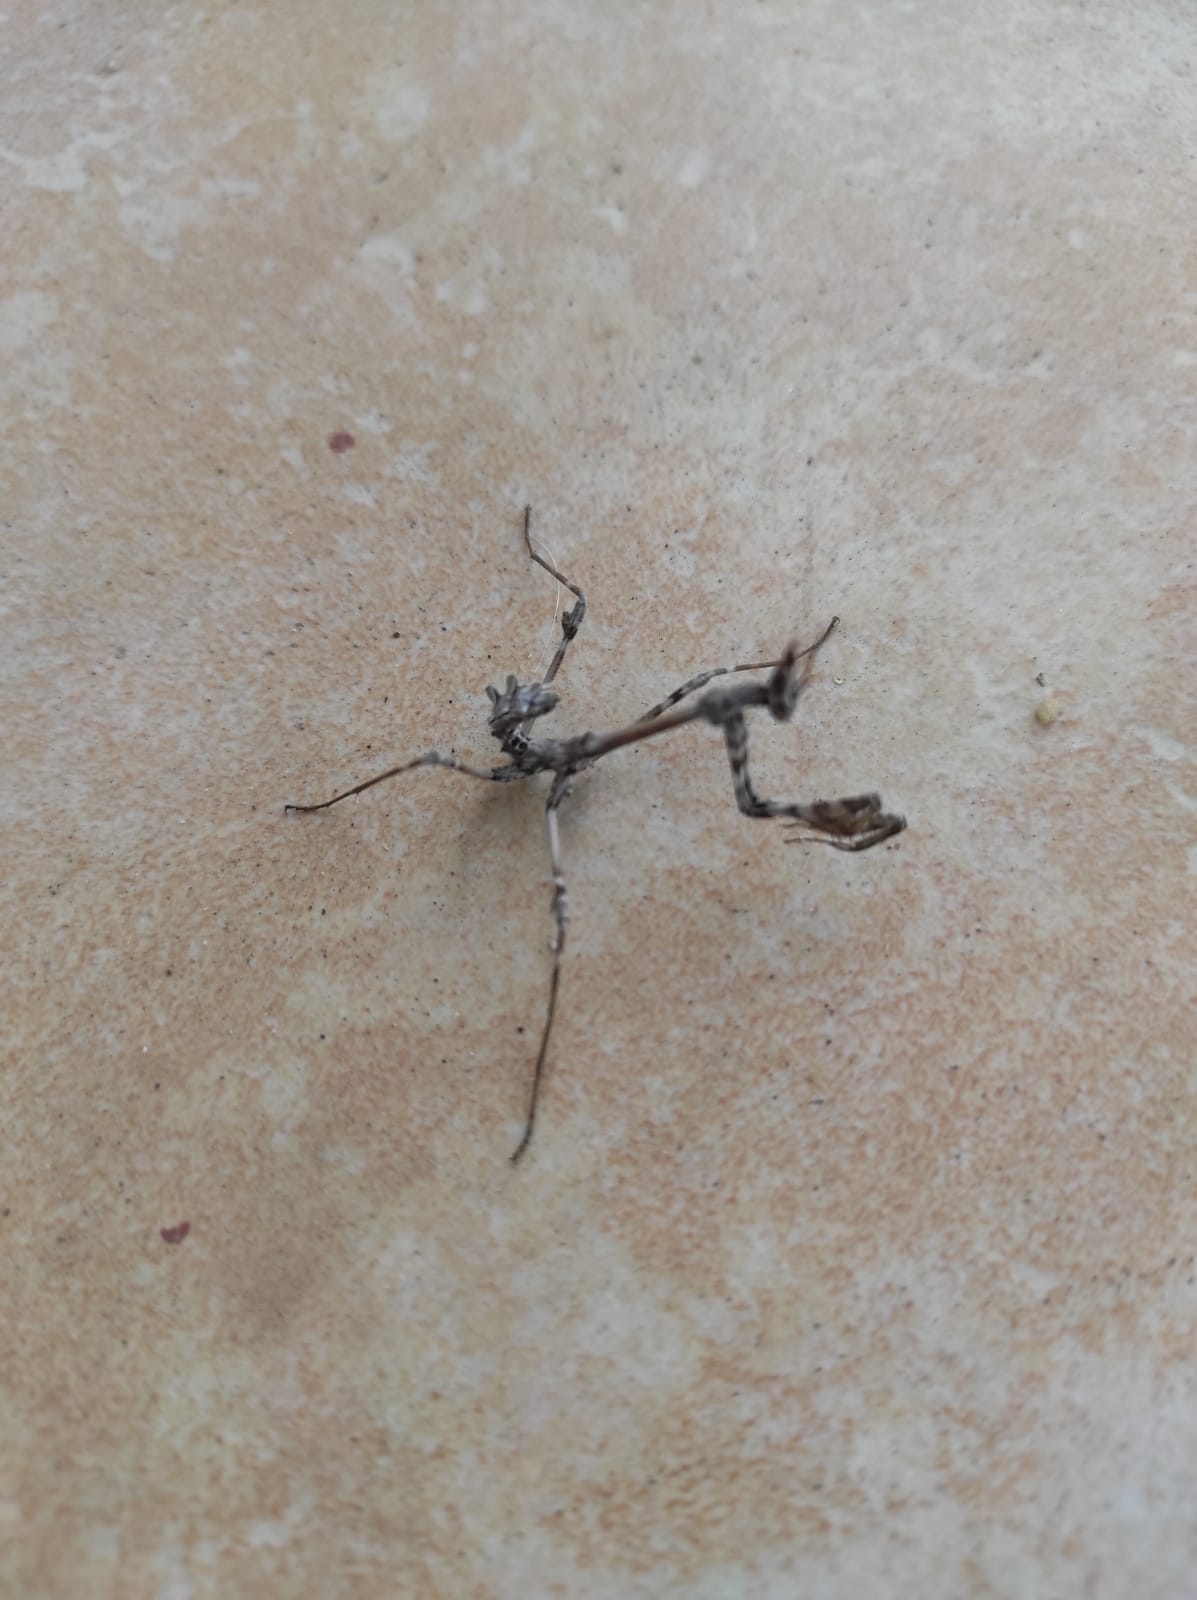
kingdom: Animalia
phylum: Arthropoda
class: Insecta
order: Mantodea
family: Empusidae
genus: Empusa
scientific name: Empusa fasciata
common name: Devil's mare
